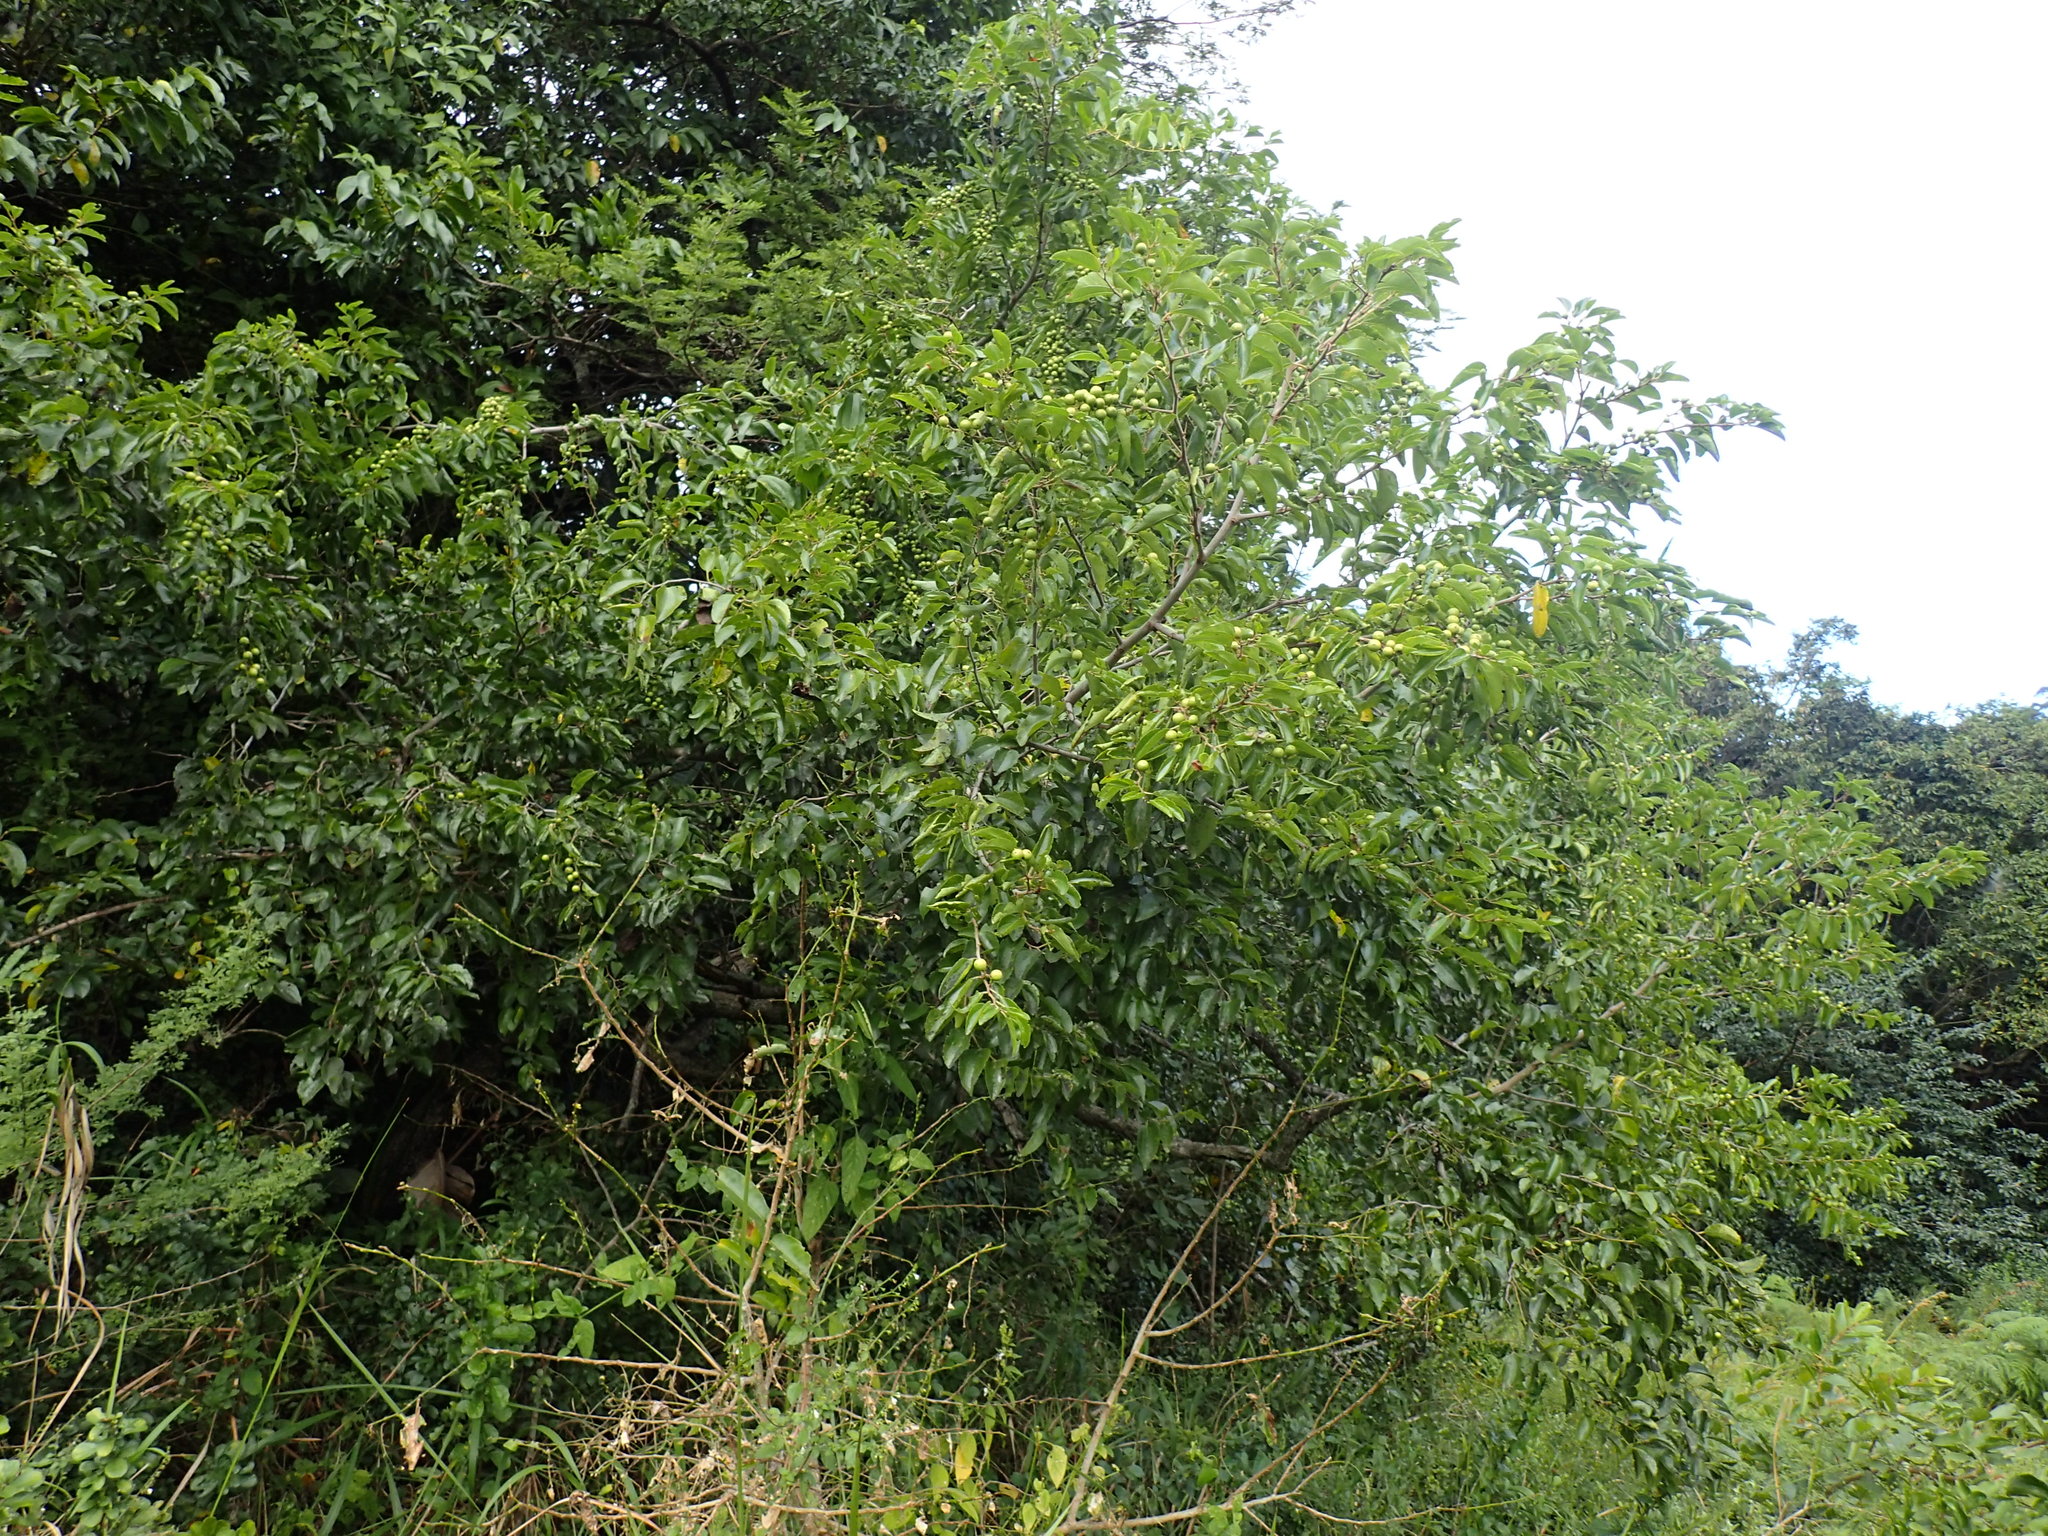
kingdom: Plantae
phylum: Tracheophyta
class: Magnoliopsida
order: Rosales
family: Rhamnaceae
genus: Ziziphus
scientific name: Ziziphus mucronata
